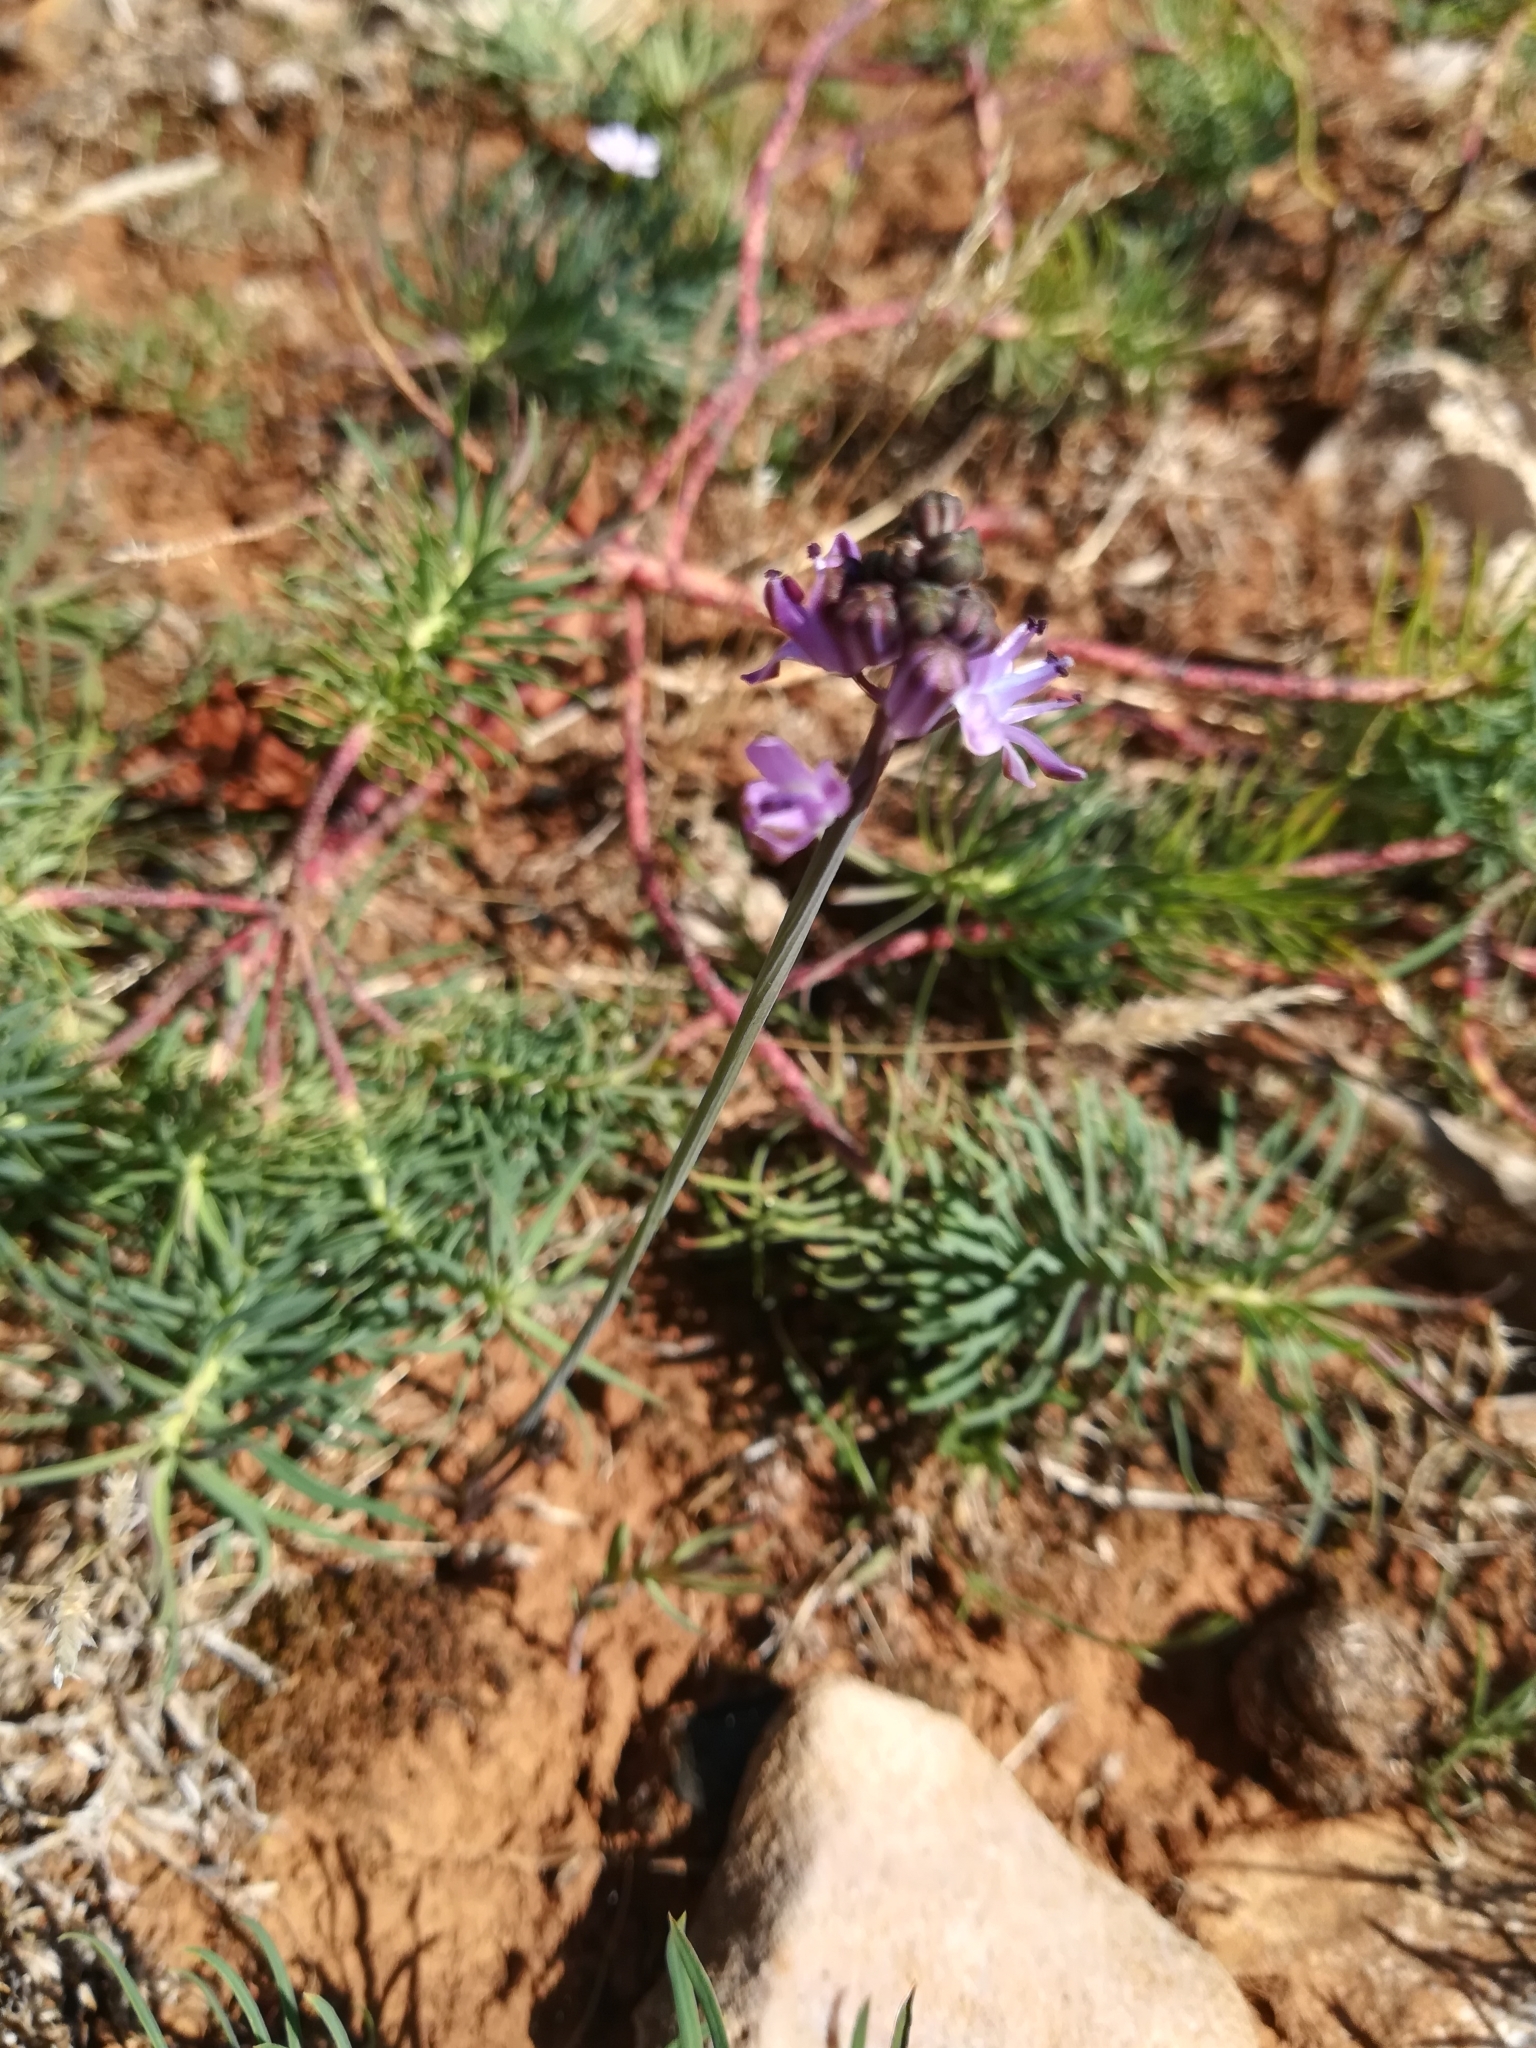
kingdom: Plantae
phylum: Tracheophyta
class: Liliopsida
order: Asparagales
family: Asparagaceae
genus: Prospero
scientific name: Prospero autumnale
